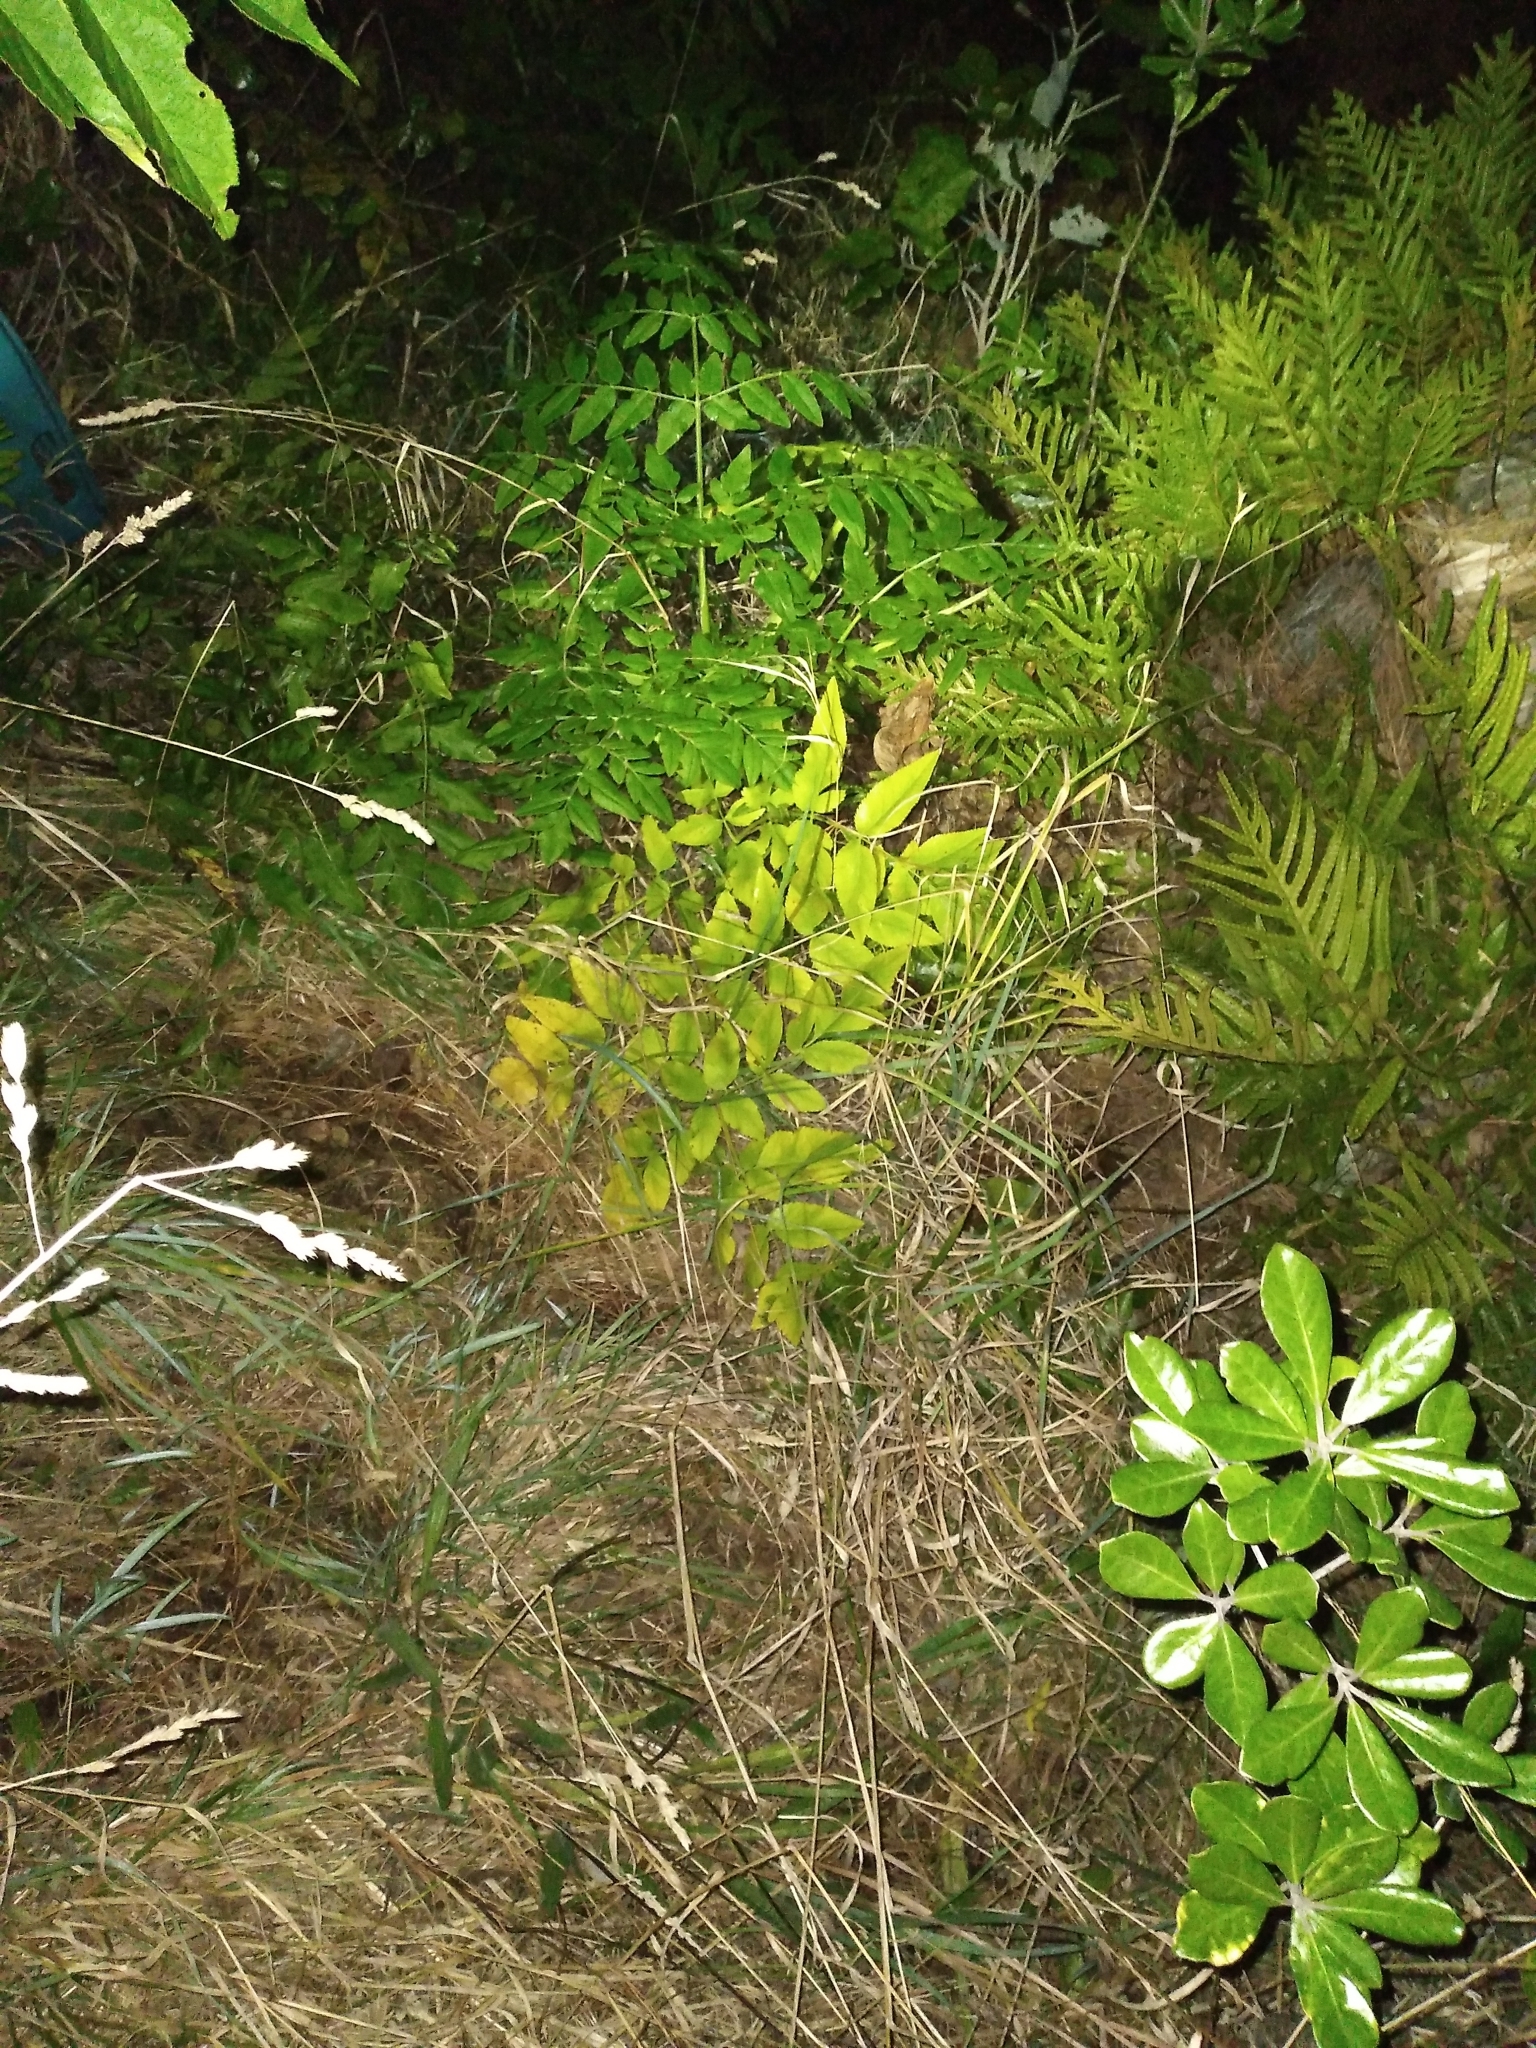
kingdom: Plantae
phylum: Tracheophyta
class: Magnoliopsida
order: Apiales
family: Apiaceae
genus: Daucus
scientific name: Daucus decipiens
